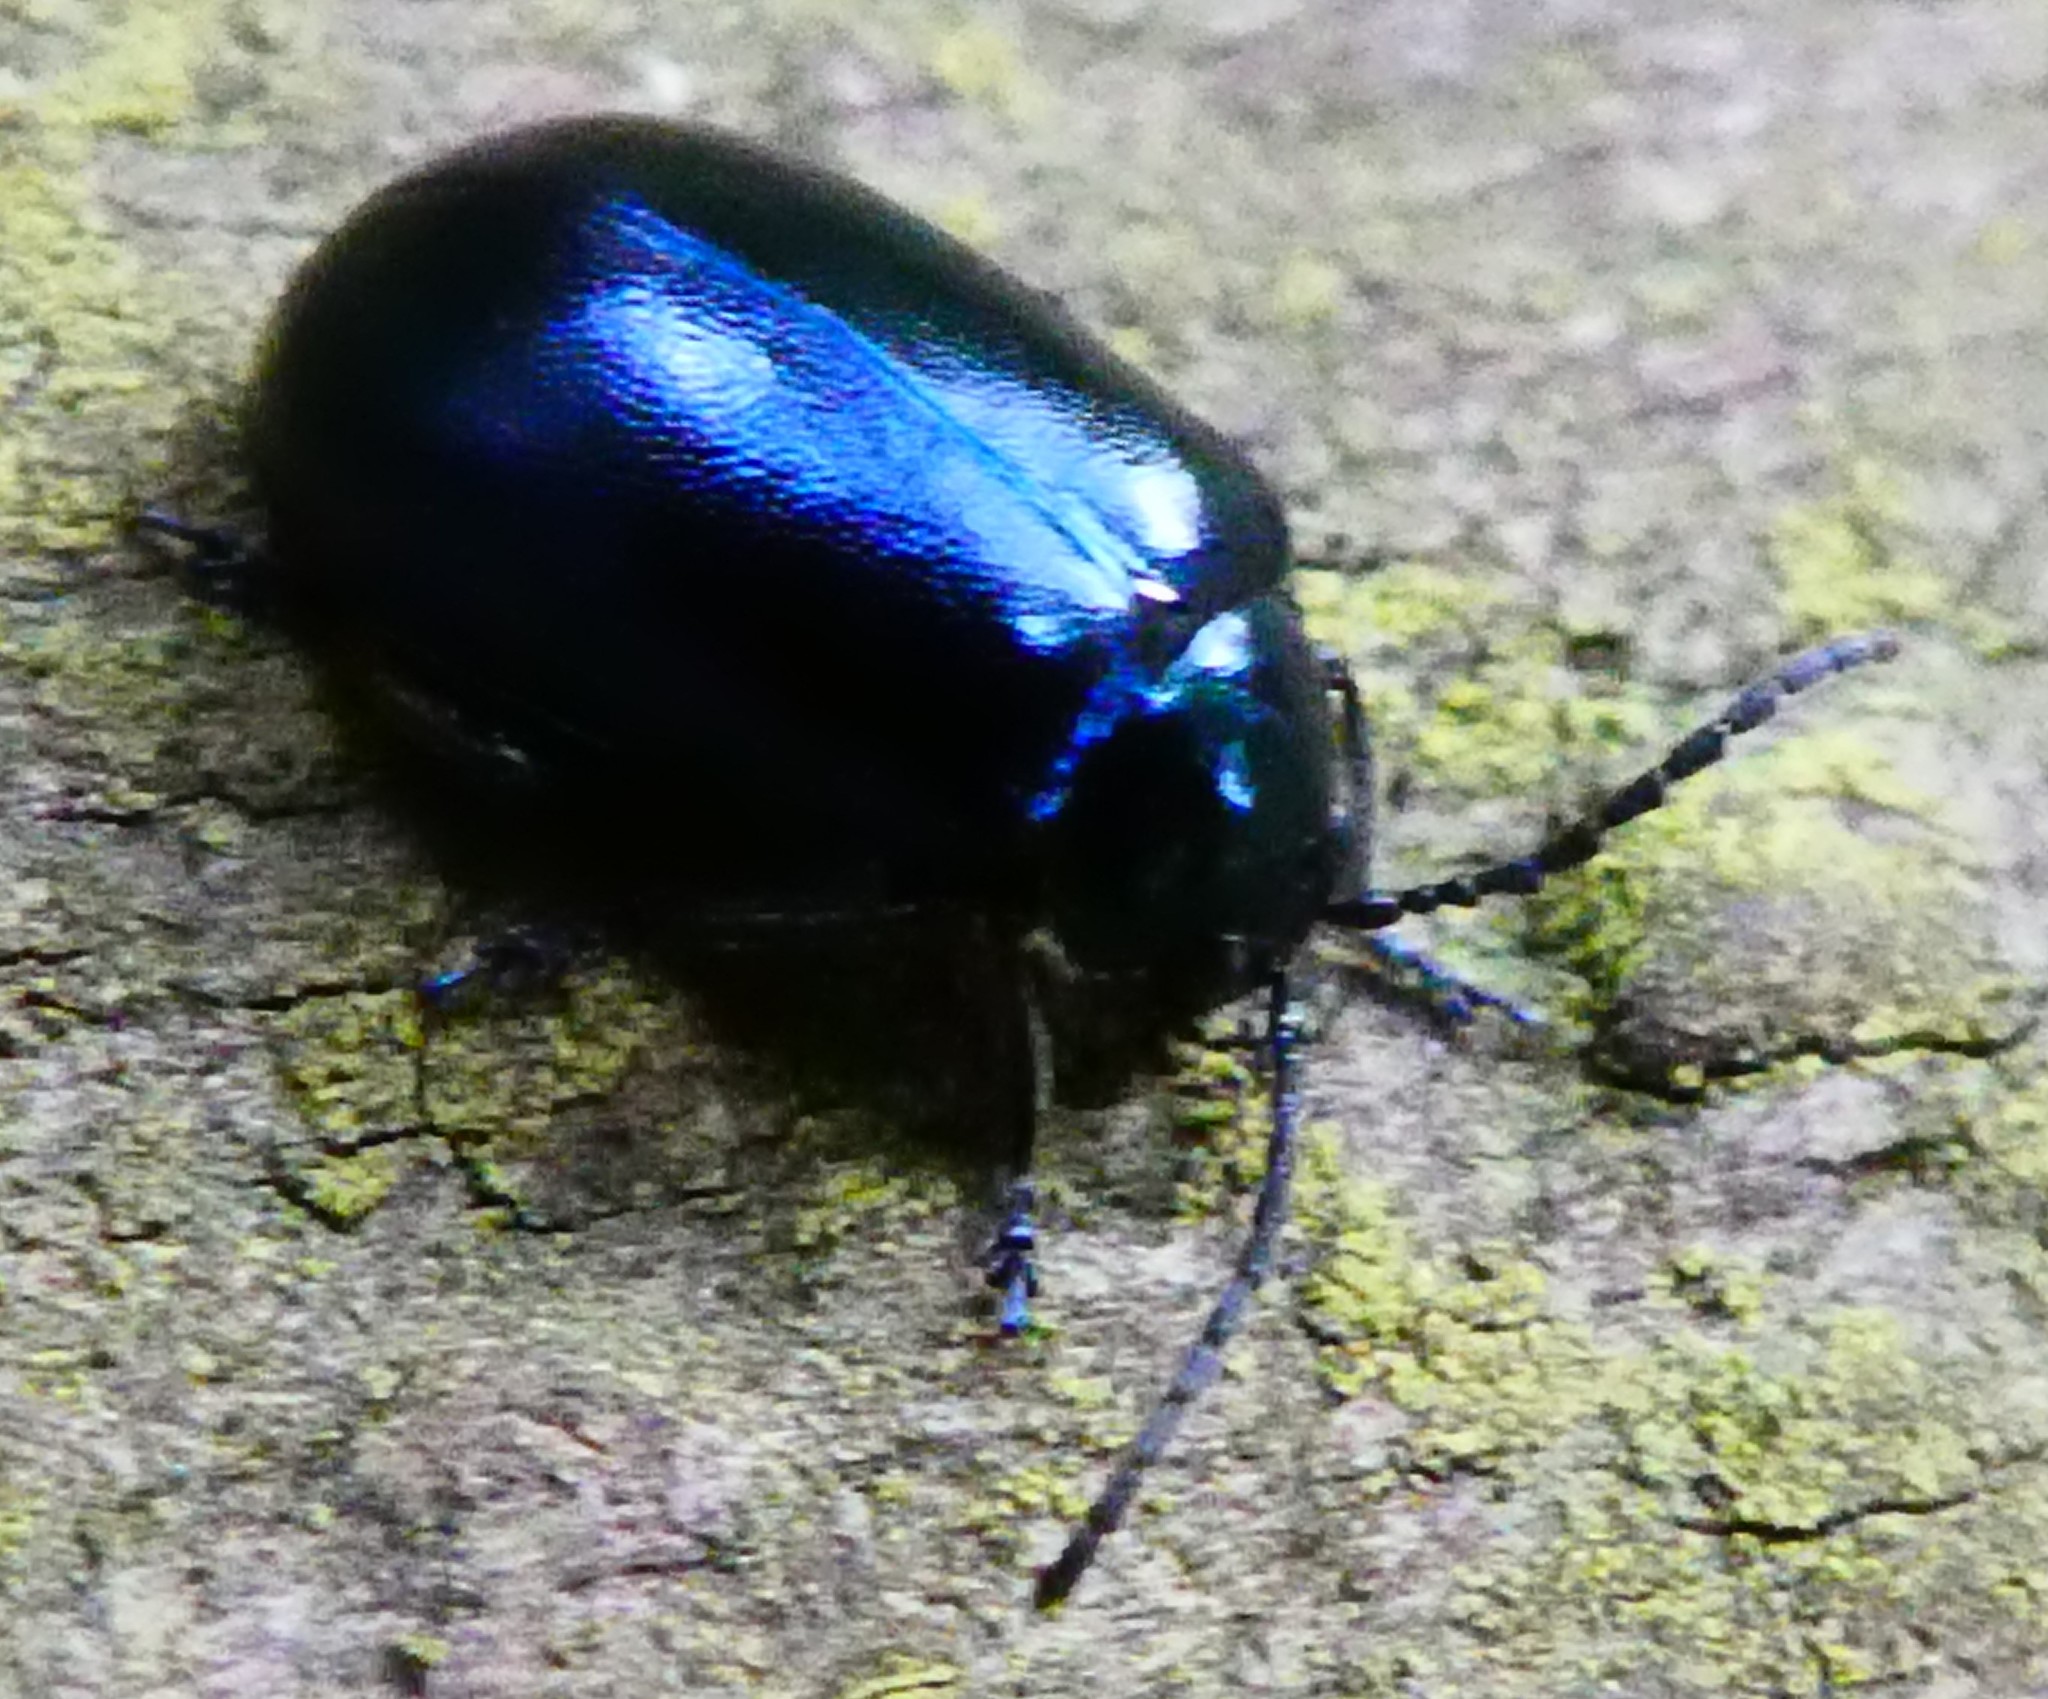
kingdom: Animalia
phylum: Arthropoda
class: Insecta
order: Coleoptera
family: Chrysomelidae
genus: Agelastica
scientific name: Agelastica alni
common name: Alder leaf beetle
